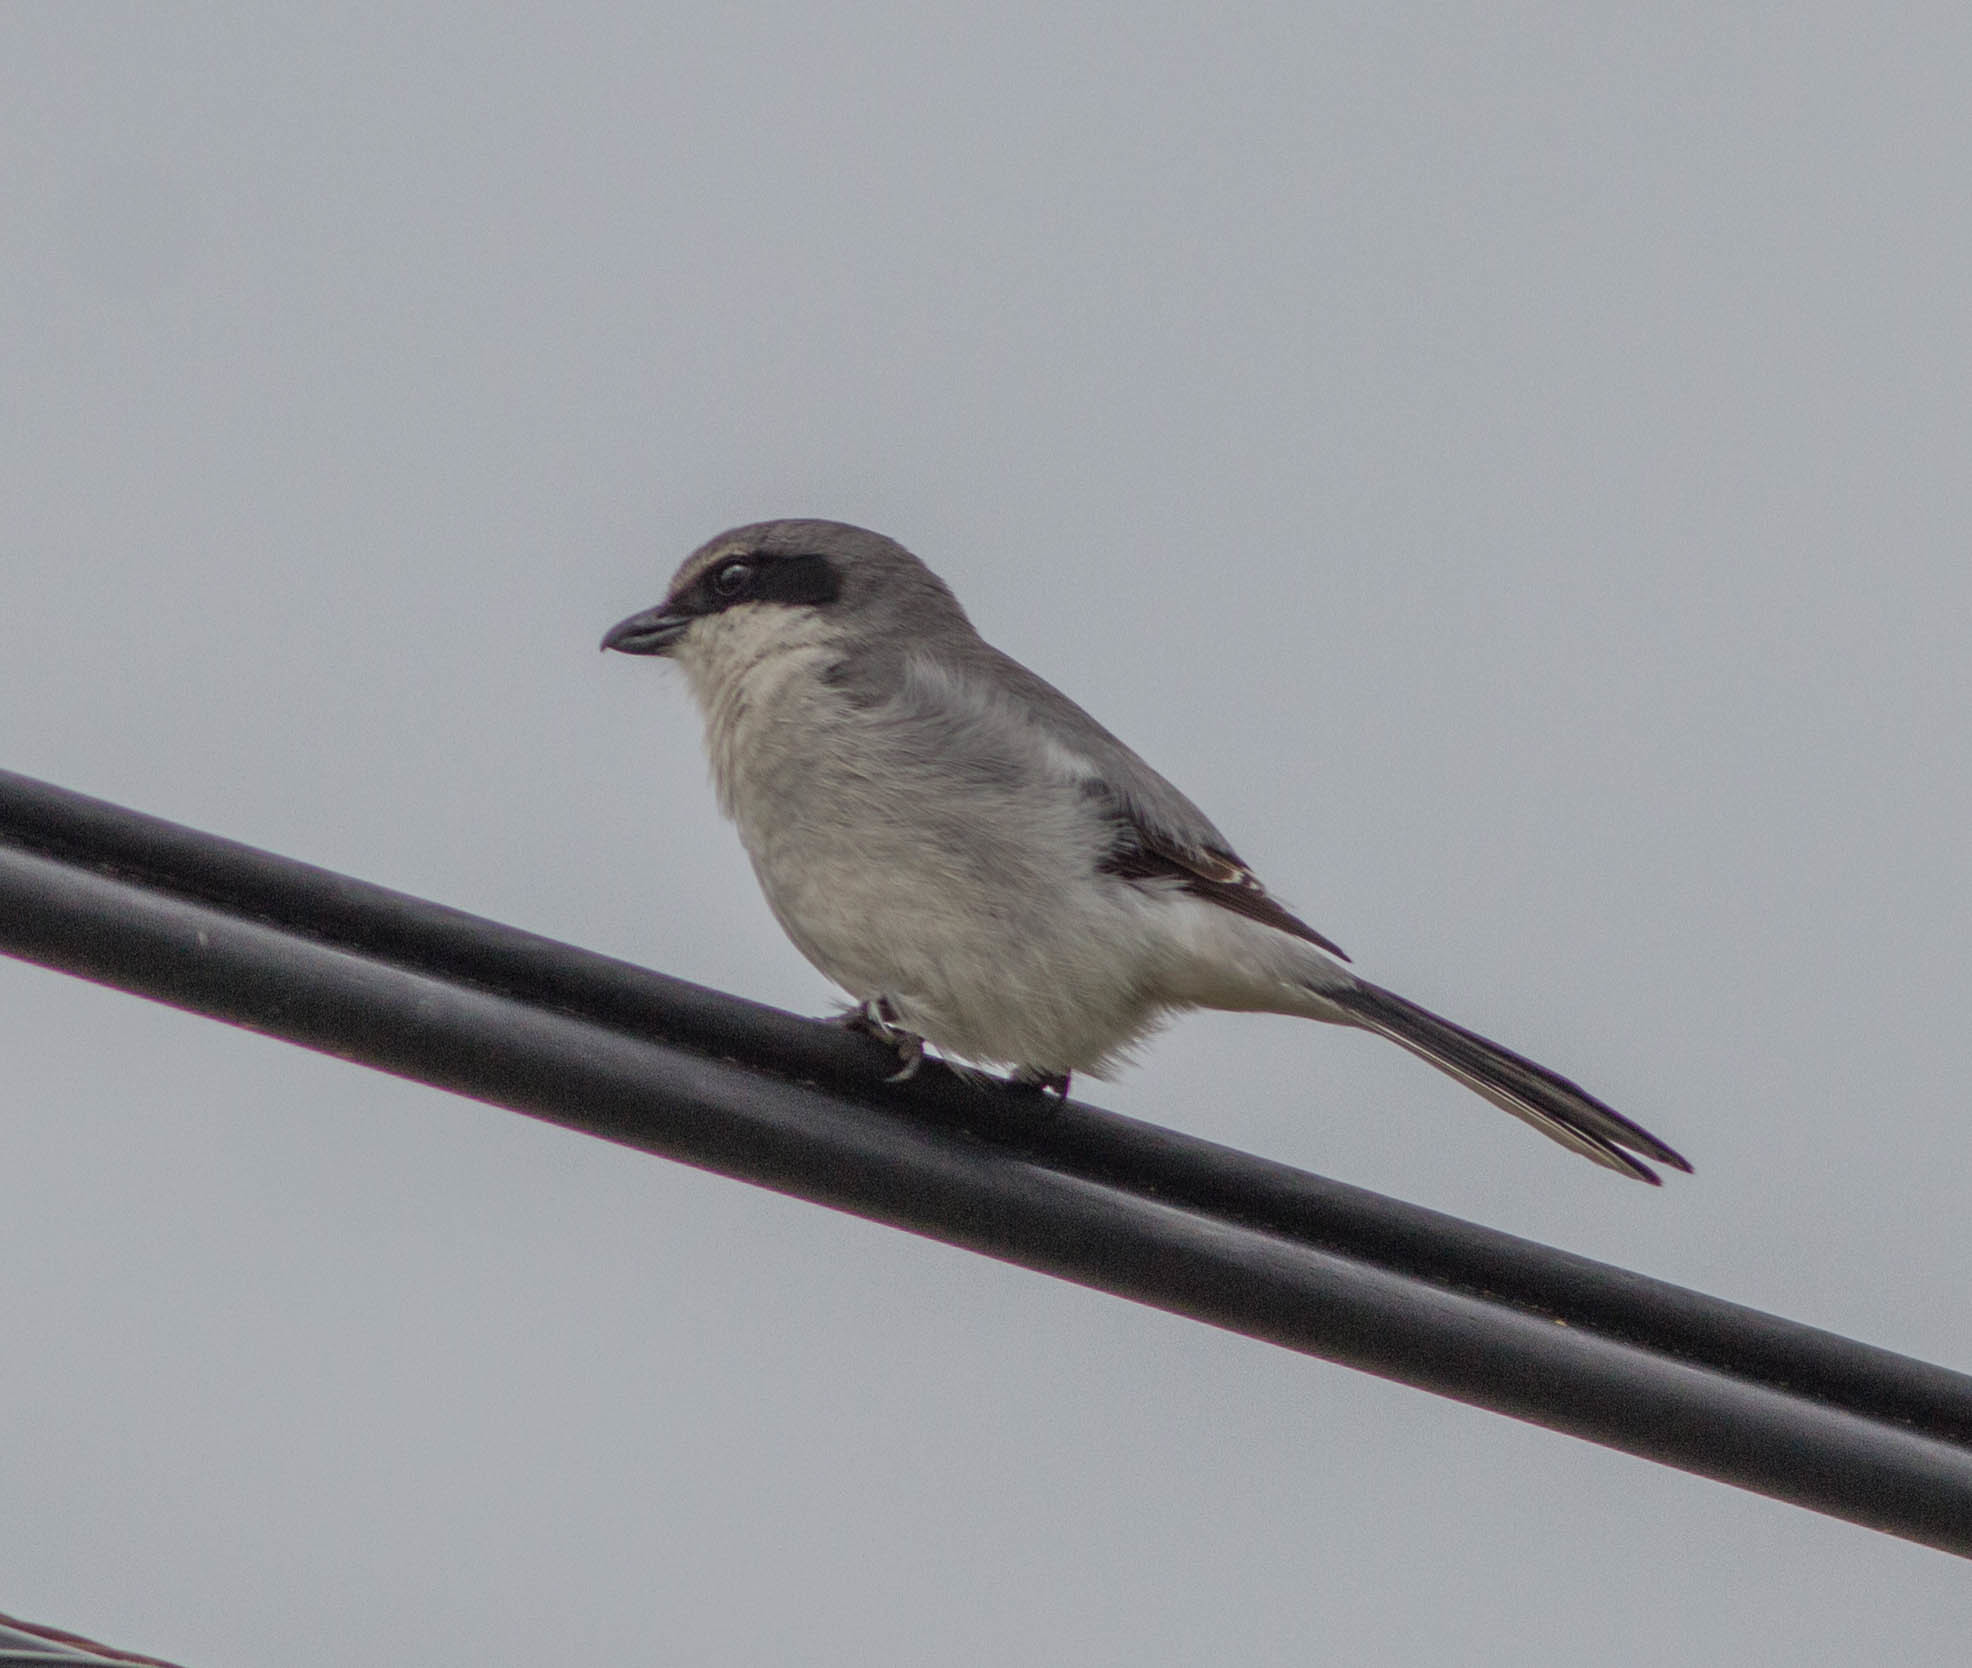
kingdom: Animalia
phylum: Chordata
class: Aves
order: Passeriformes
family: Laniidae
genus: Lanius
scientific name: Lanius ludovicianus
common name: Loggerhead shrike
